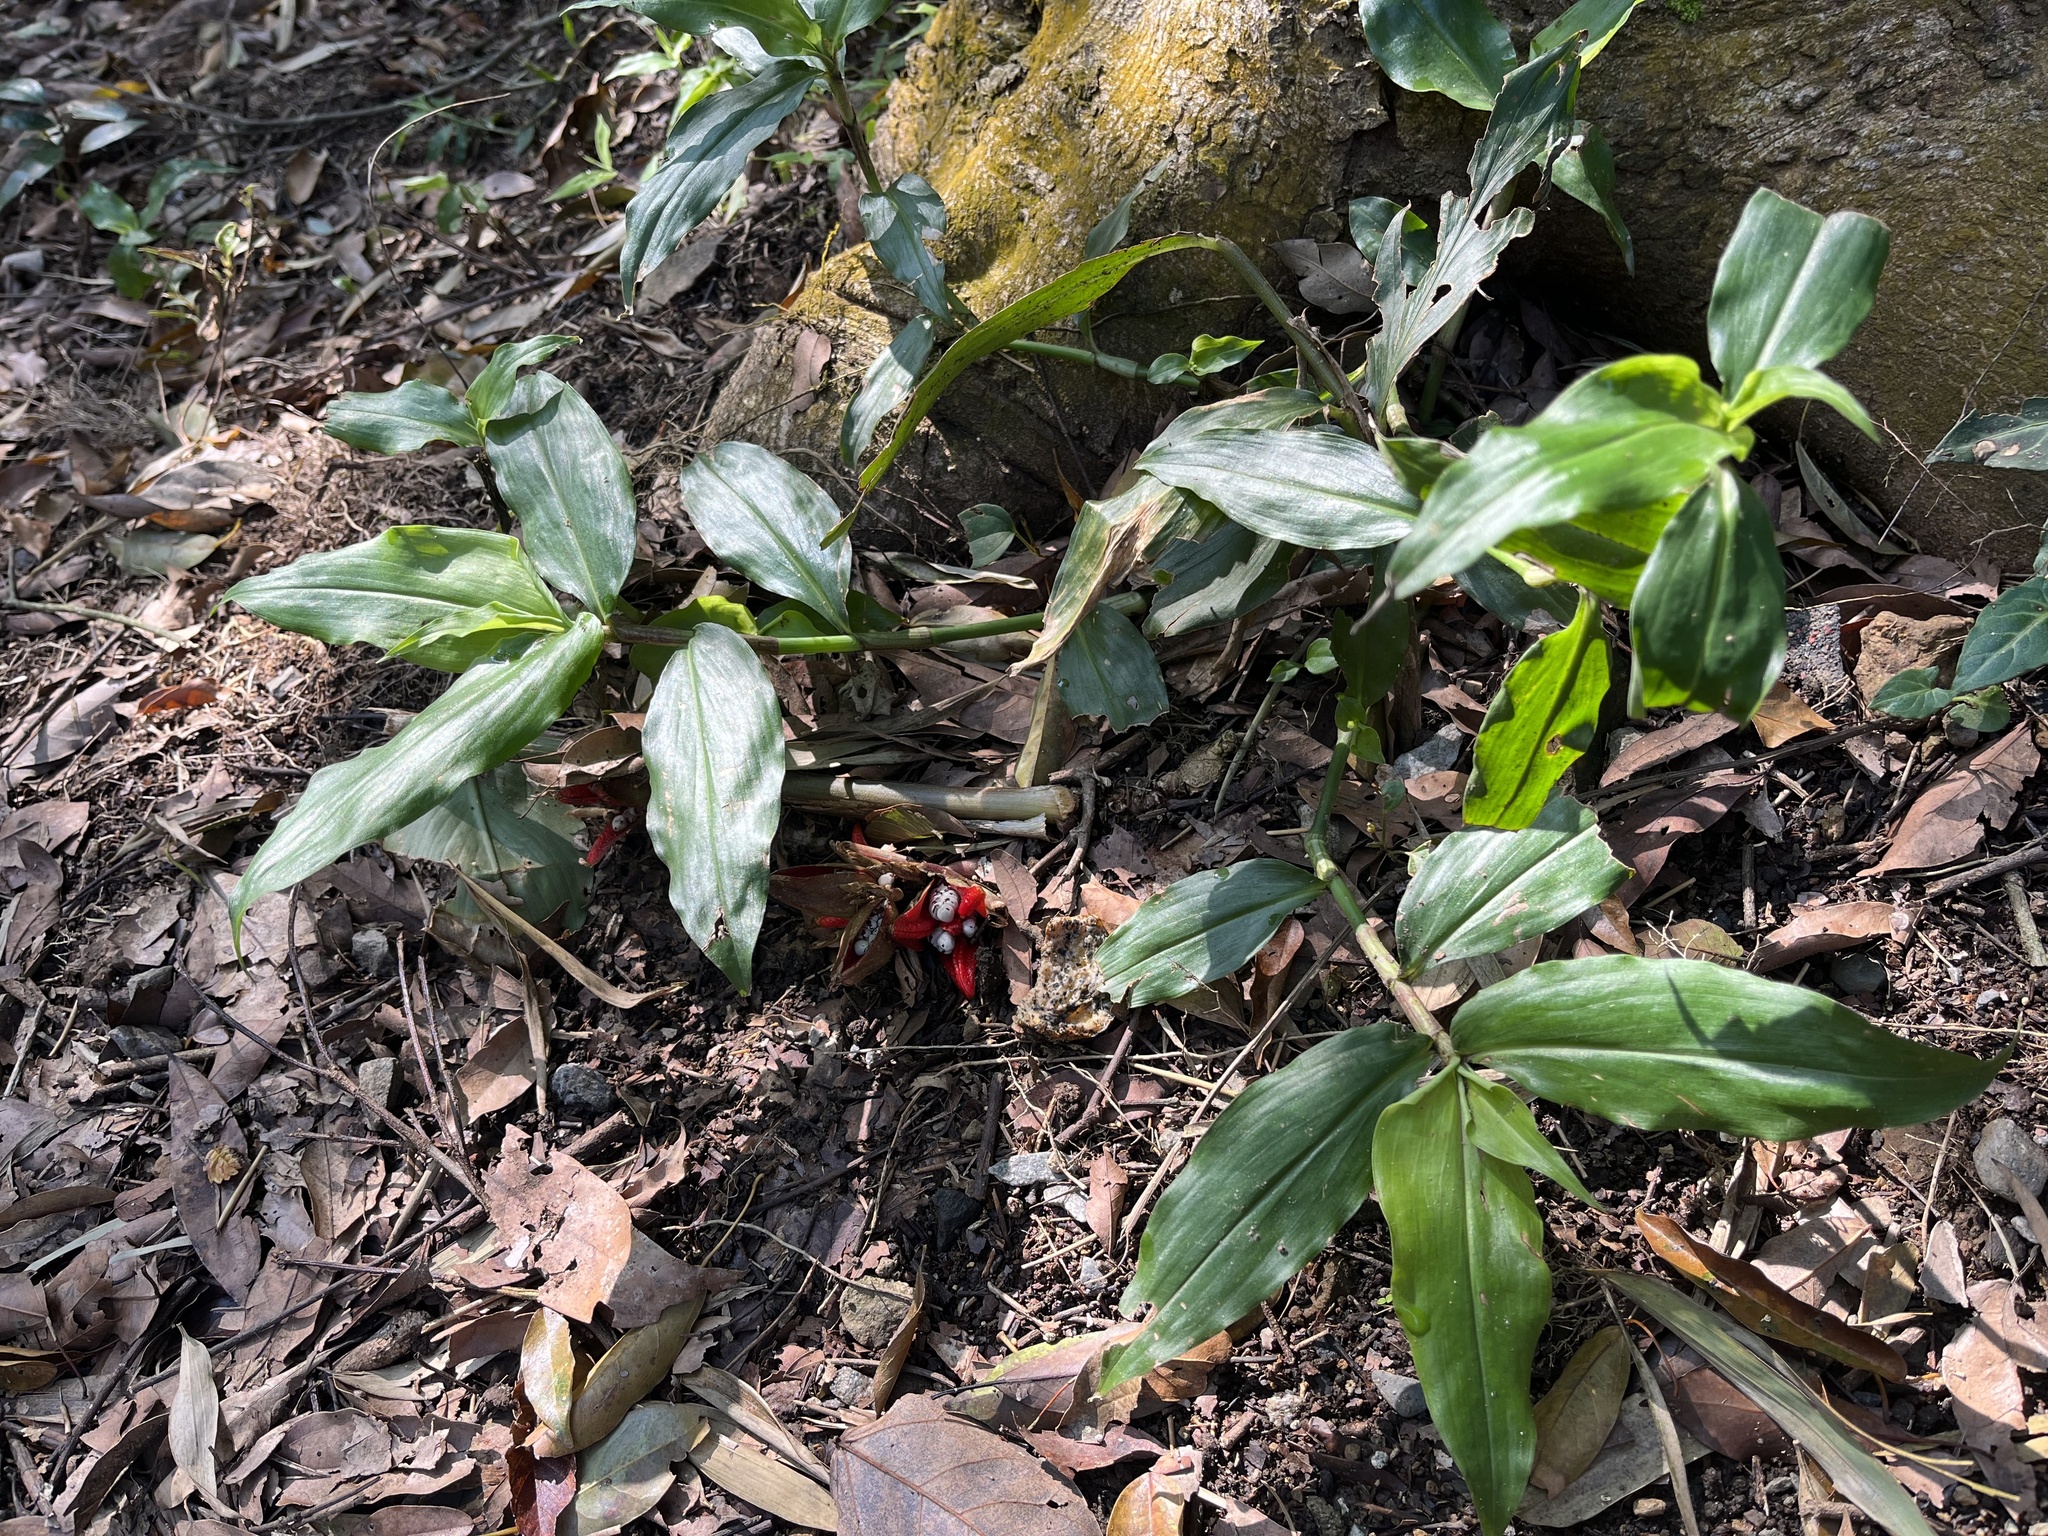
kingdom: Plantae
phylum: Tracheophyta
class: Liliopsida
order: Zingiberales
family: Zingiberaceae
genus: Zingiber
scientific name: Zingiber kawagoii
